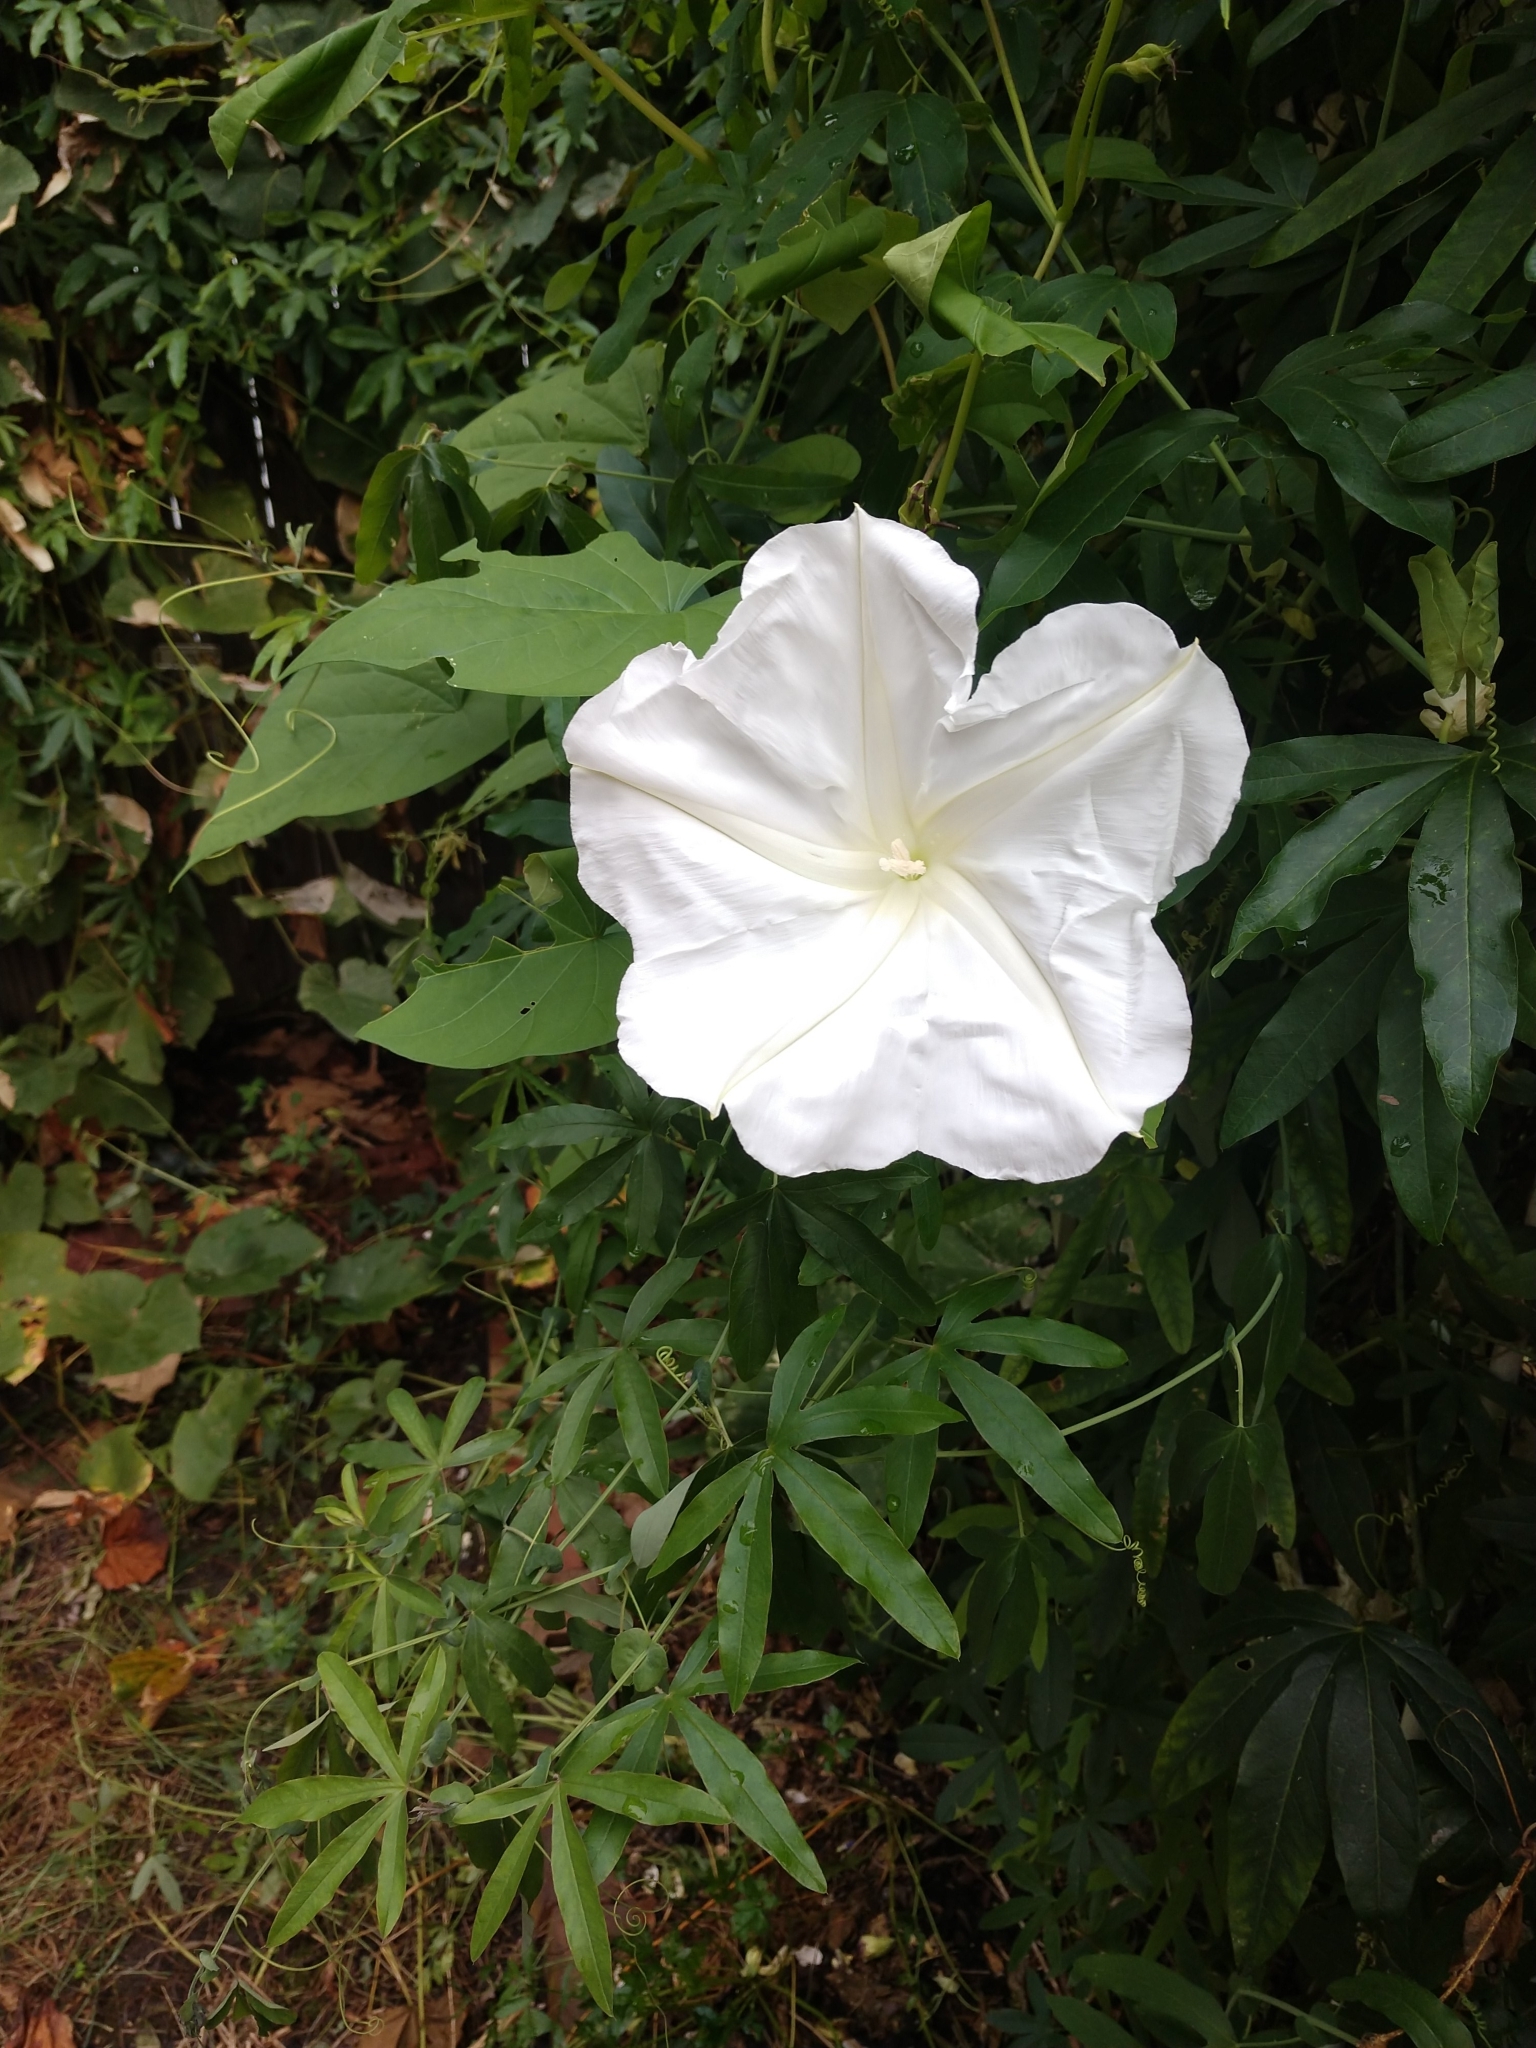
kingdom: Plantae
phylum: Tracheophyta
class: Magnoliopsida
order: Solanales
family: Convolvulaceae
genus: Ipomoea
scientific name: Ipomoea alba
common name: Moonflower
